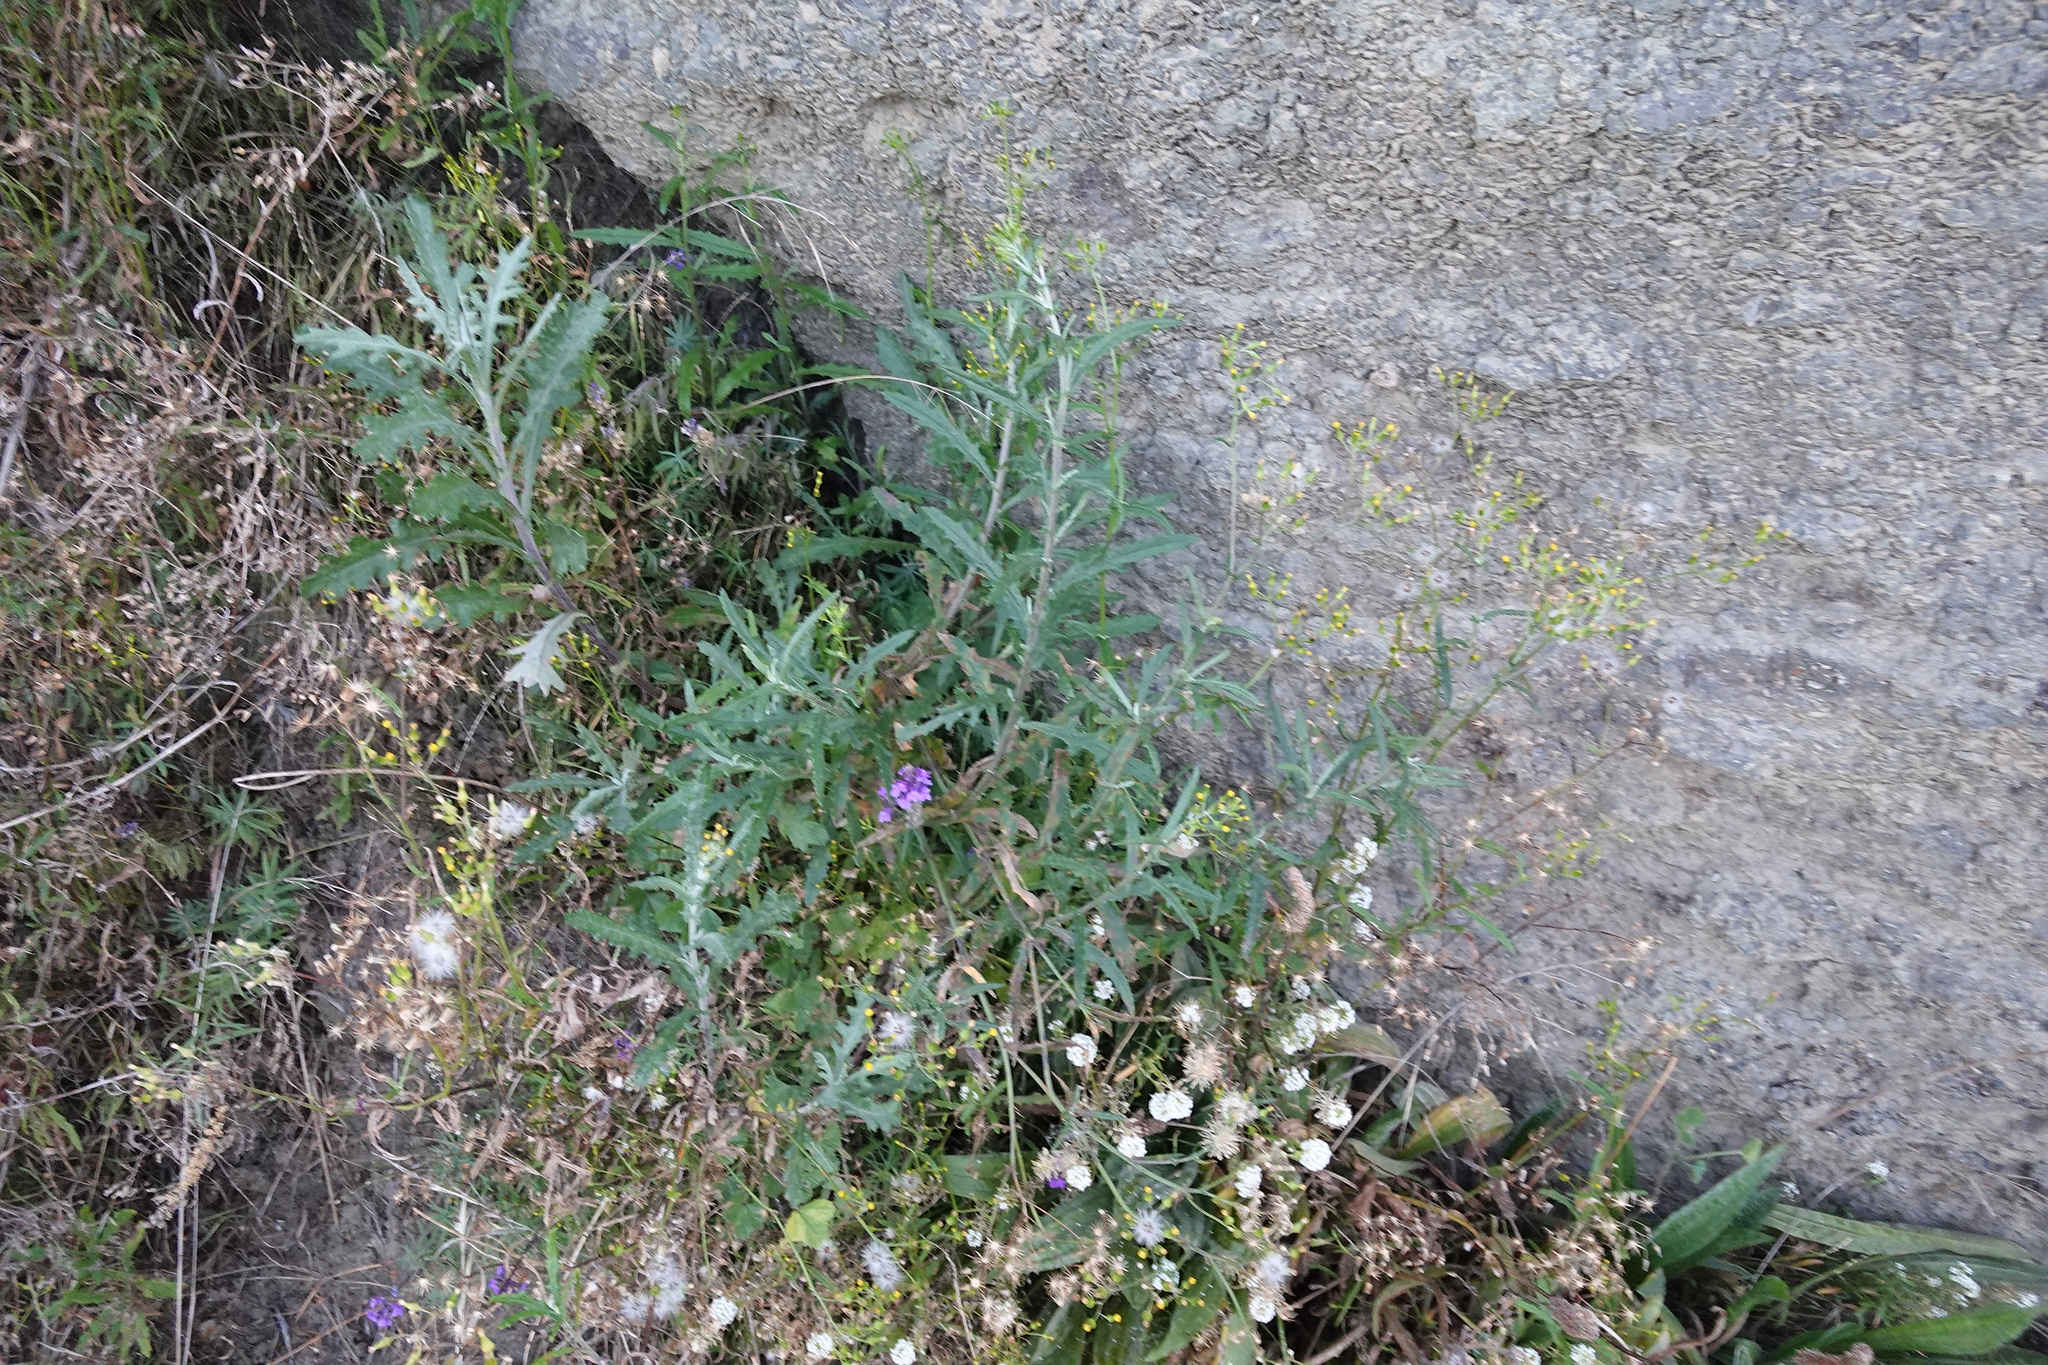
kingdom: Plantae
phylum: Tracheophyta
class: Magnoliopsida
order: Asterales
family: Asteraceae
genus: Senecio
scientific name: Senecio glomeratus
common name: Cutleaf burnweed
